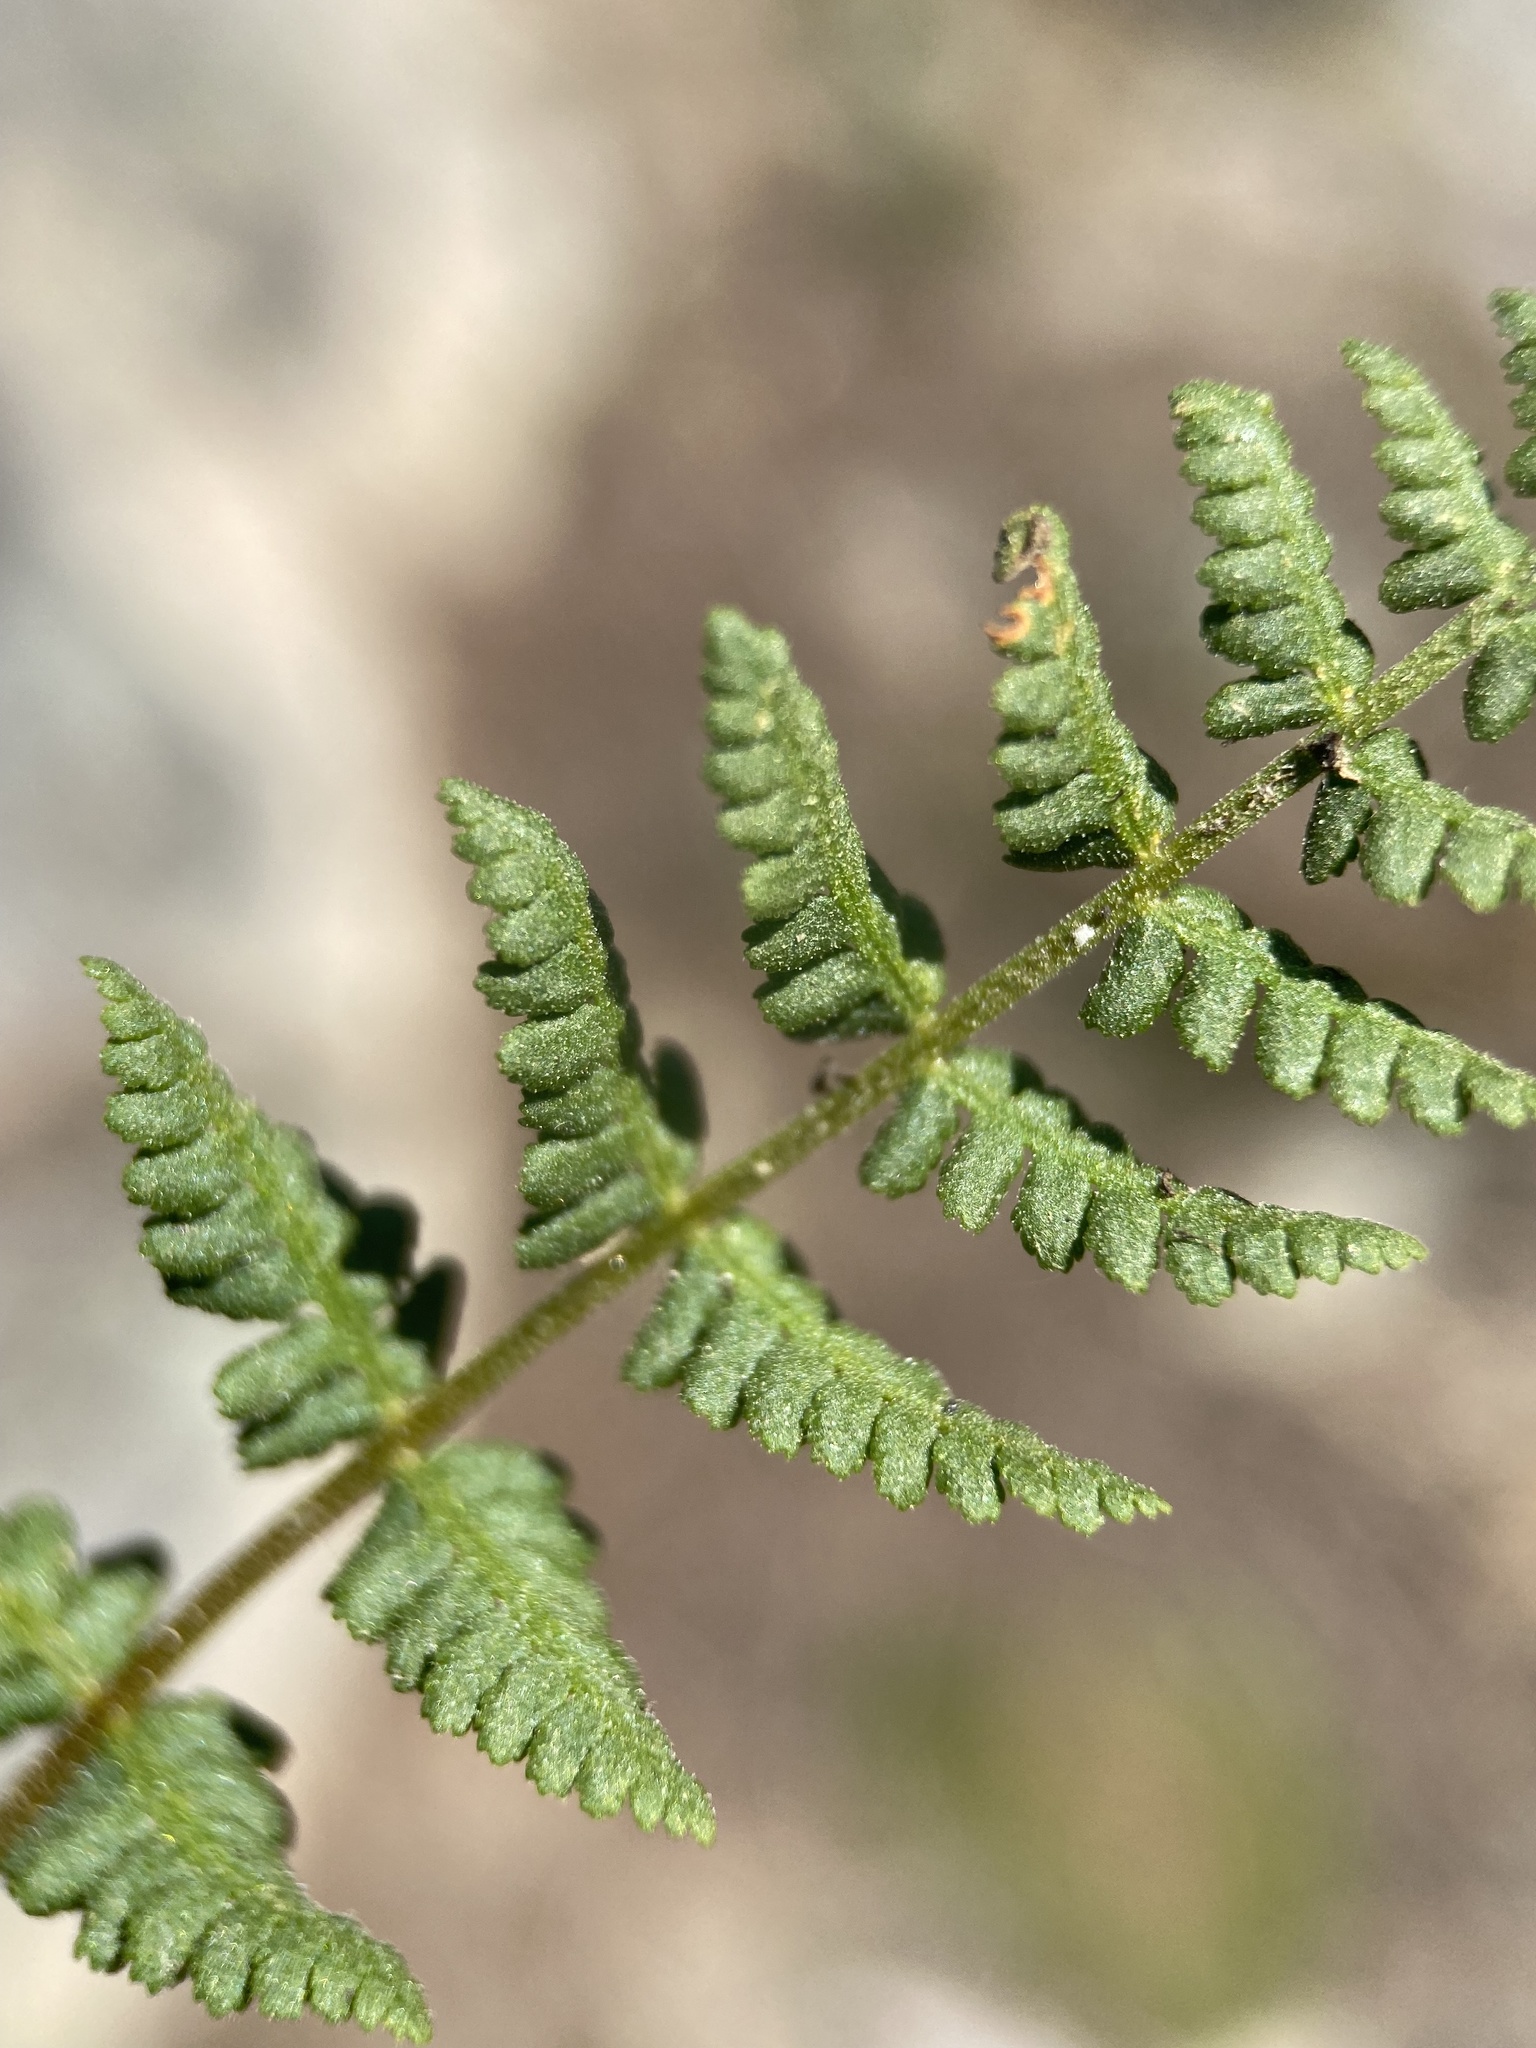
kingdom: Plantae
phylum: Tracheophyta
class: Polypodiopsida
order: Polypodiales
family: Woodsiaceae
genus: Physematium
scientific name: Physematium oreganum
